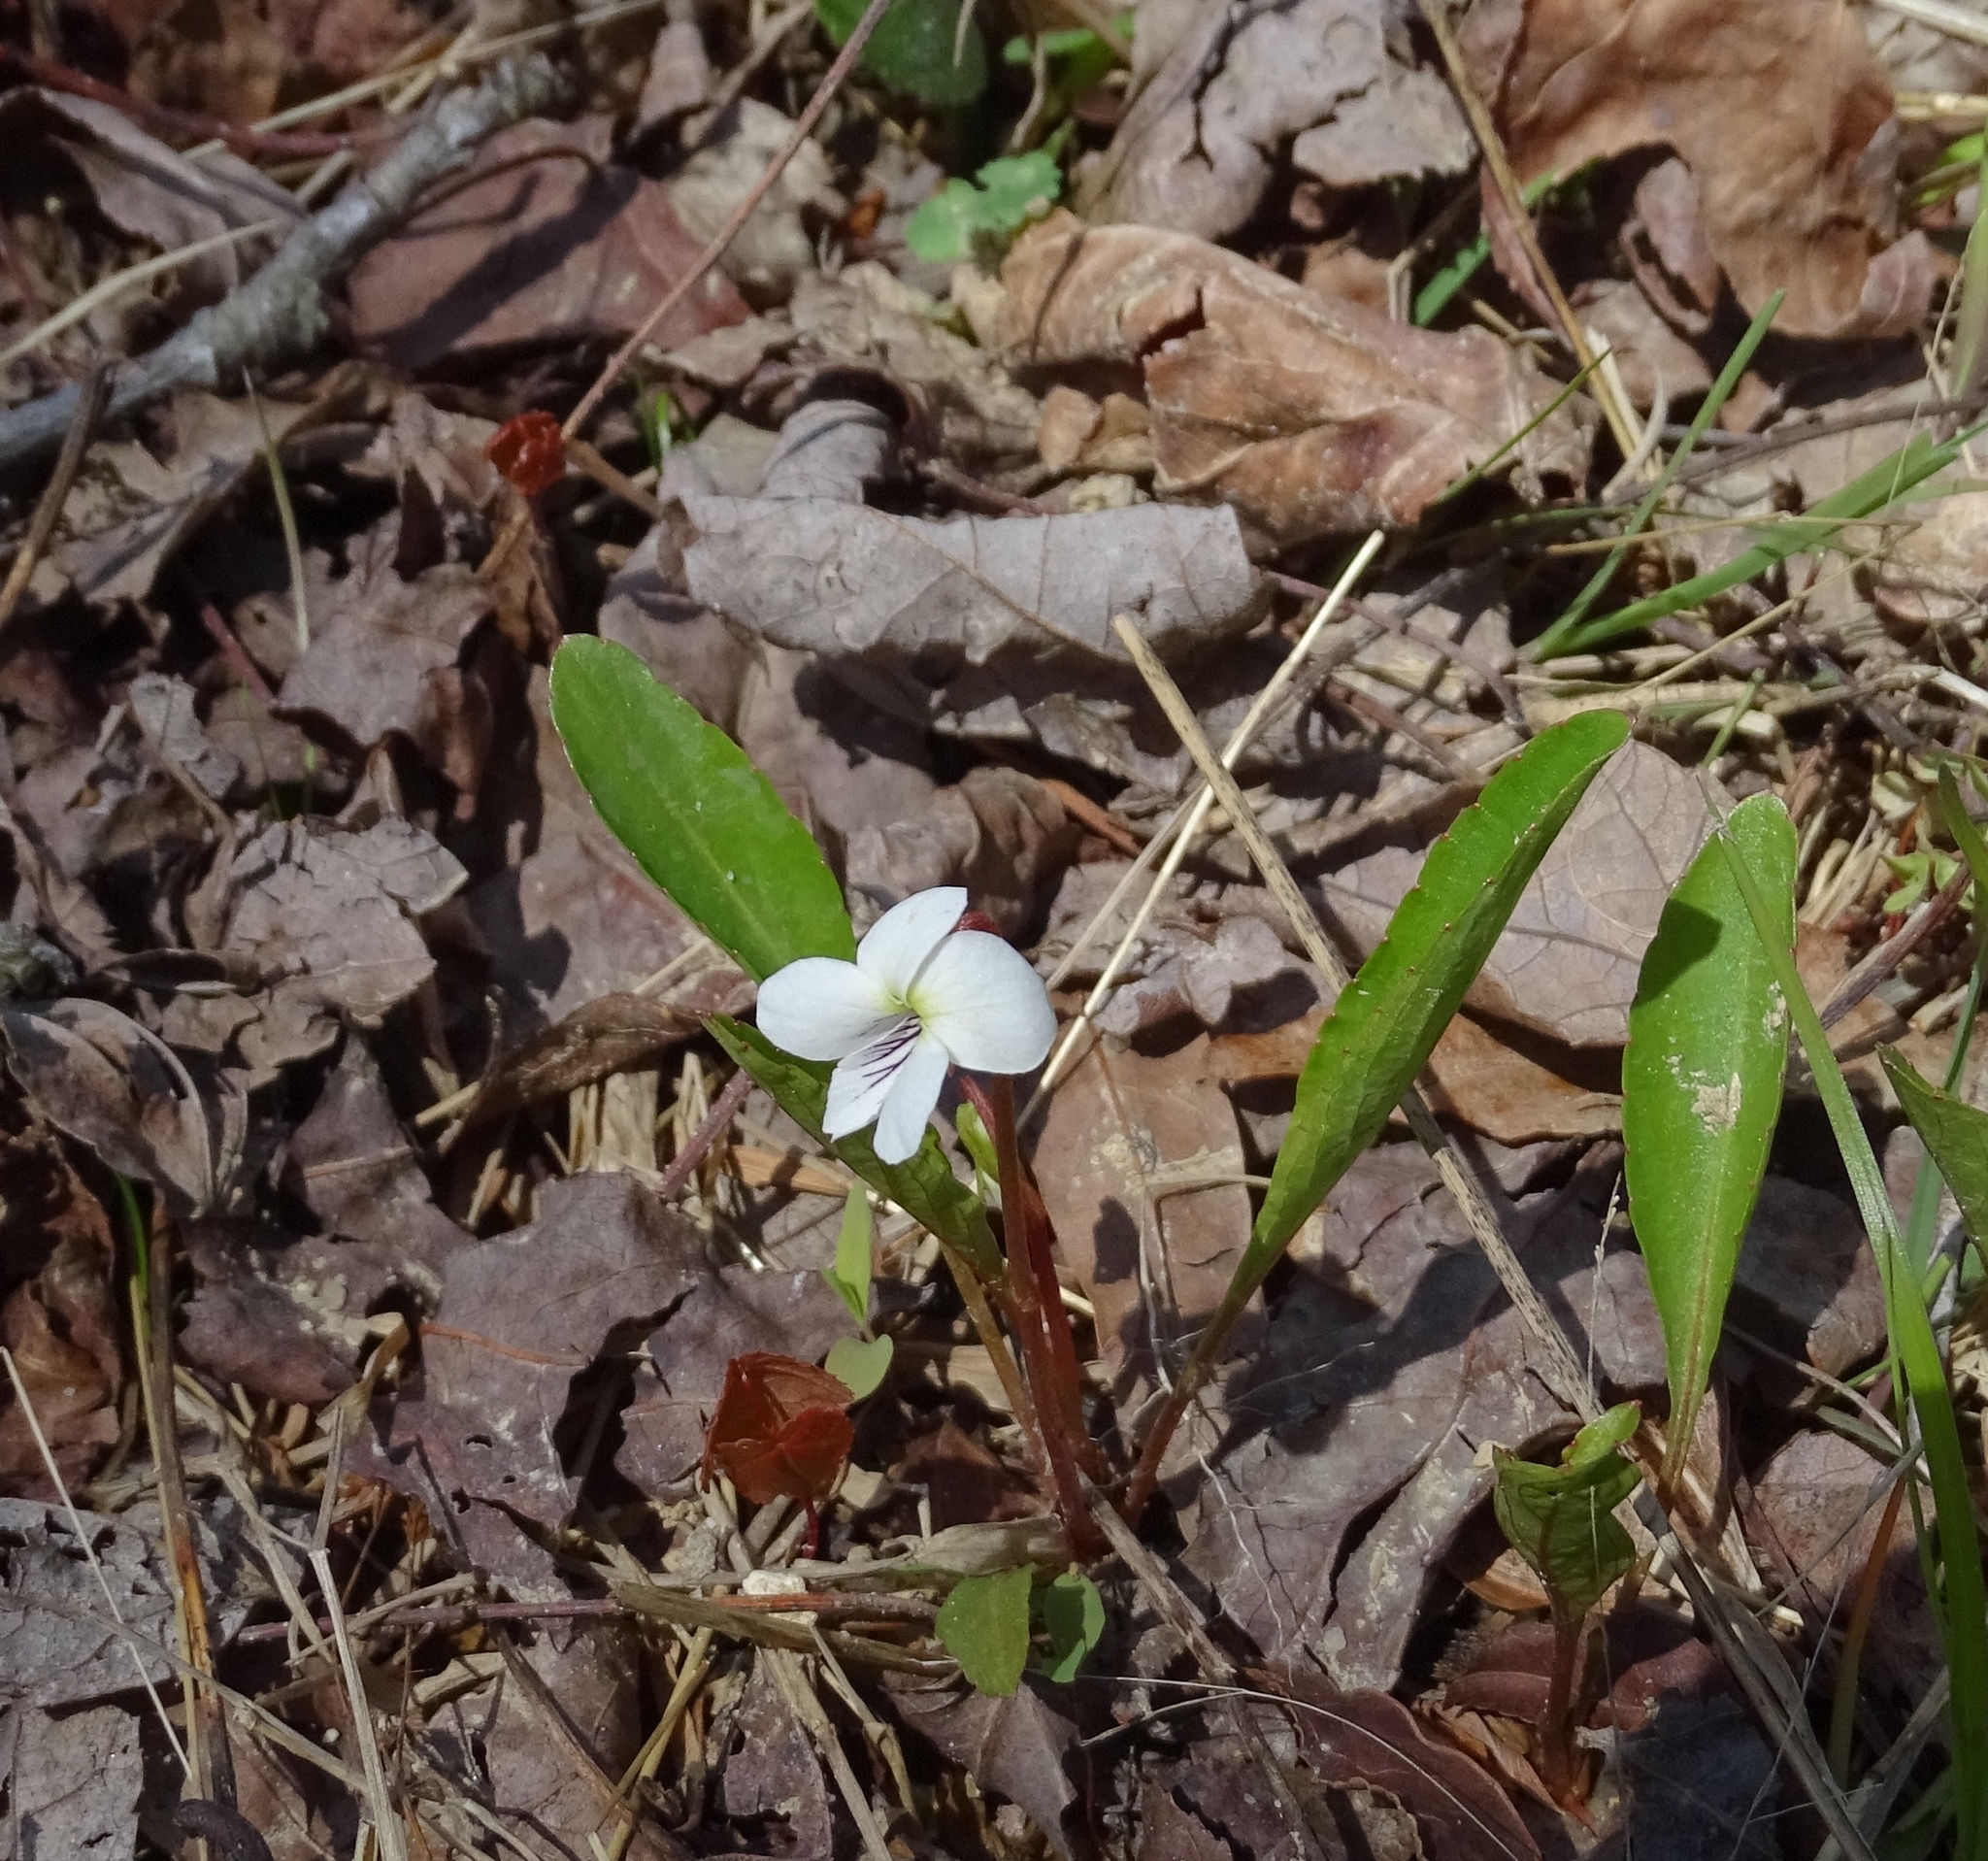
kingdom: Plantae
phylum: Tracheophyta
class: Magnoliopsida
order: Malpighiales
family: Violaceae
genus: Viola
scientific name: Viola lanceolata
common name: Bog white violet
